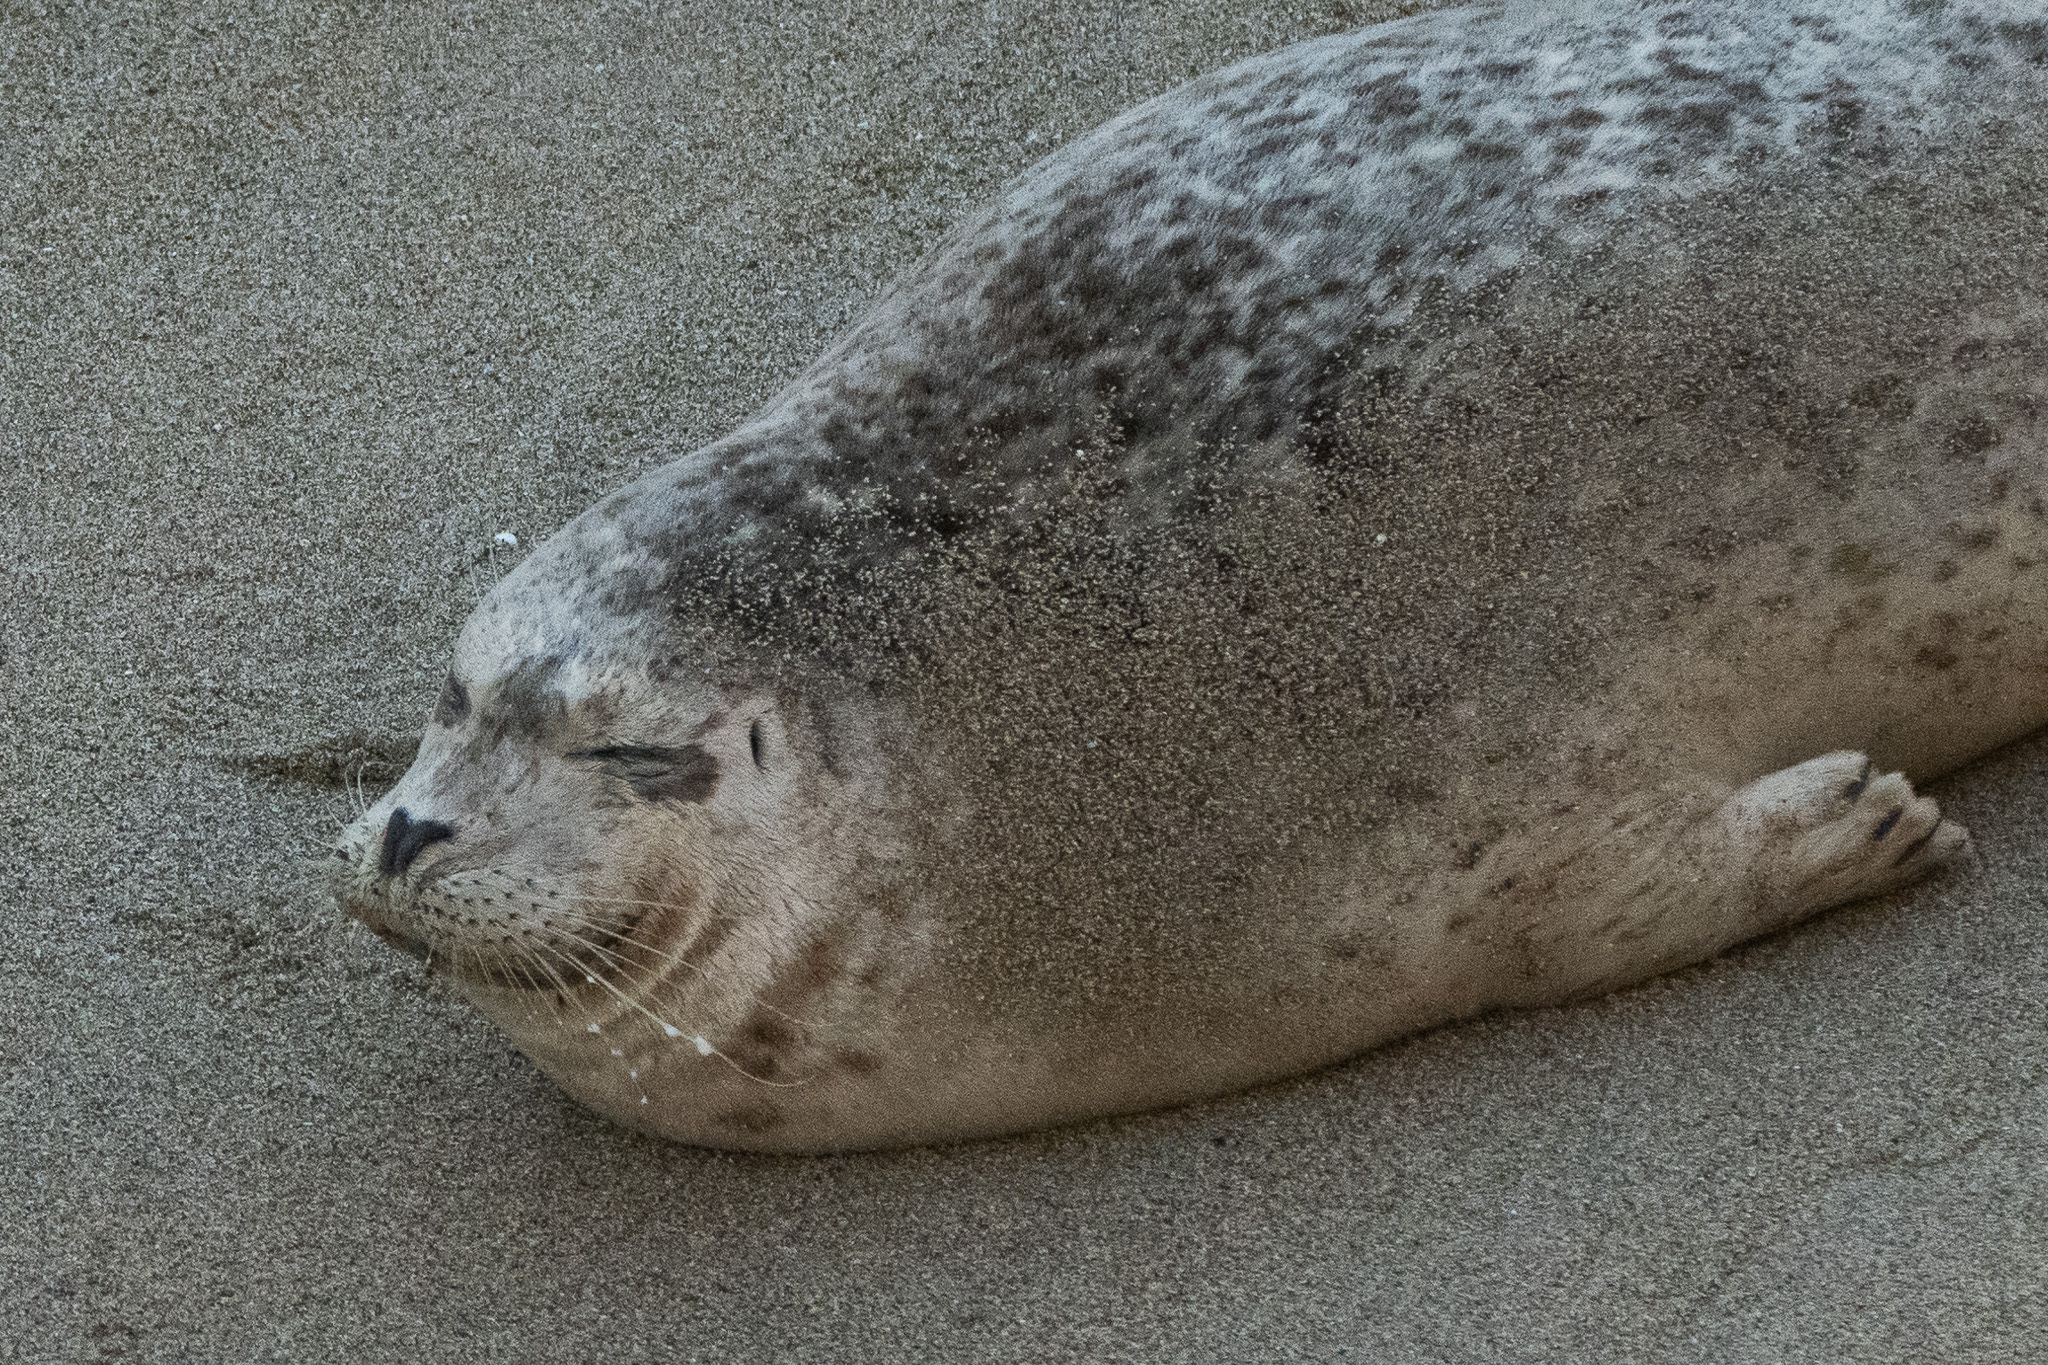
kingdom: Animalia
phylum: Chordata
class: Mammalia
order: Carnivora
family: Phocidae
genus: Phoca
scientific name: Phoca vitulina
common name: Harbor seal
